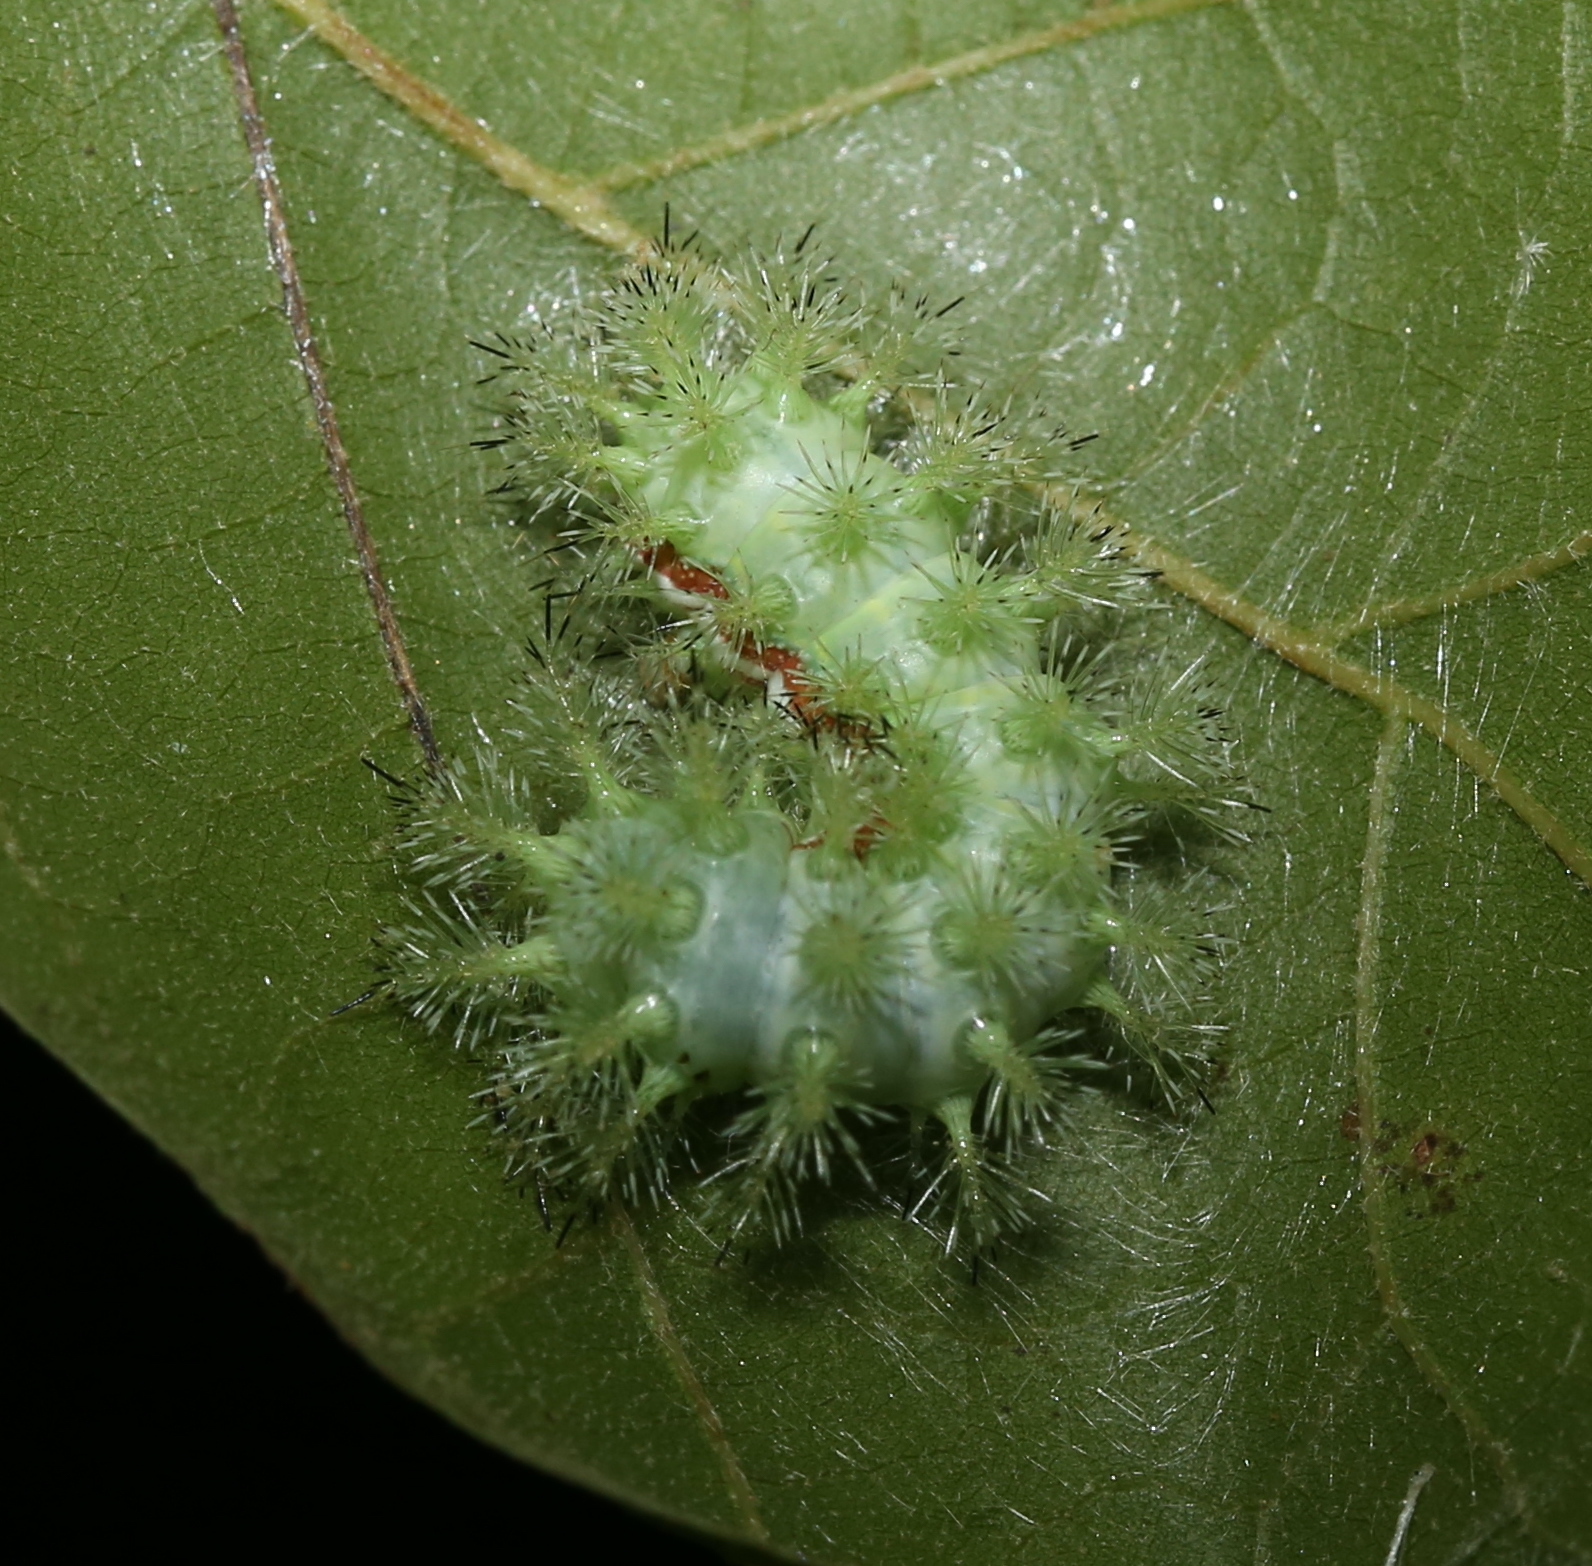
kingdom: Animalia
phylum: Arthropoda
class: Insecta
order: Lepidoptera
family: Saturniidae
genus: Automeris
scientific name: Automeris io
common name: Io moth
